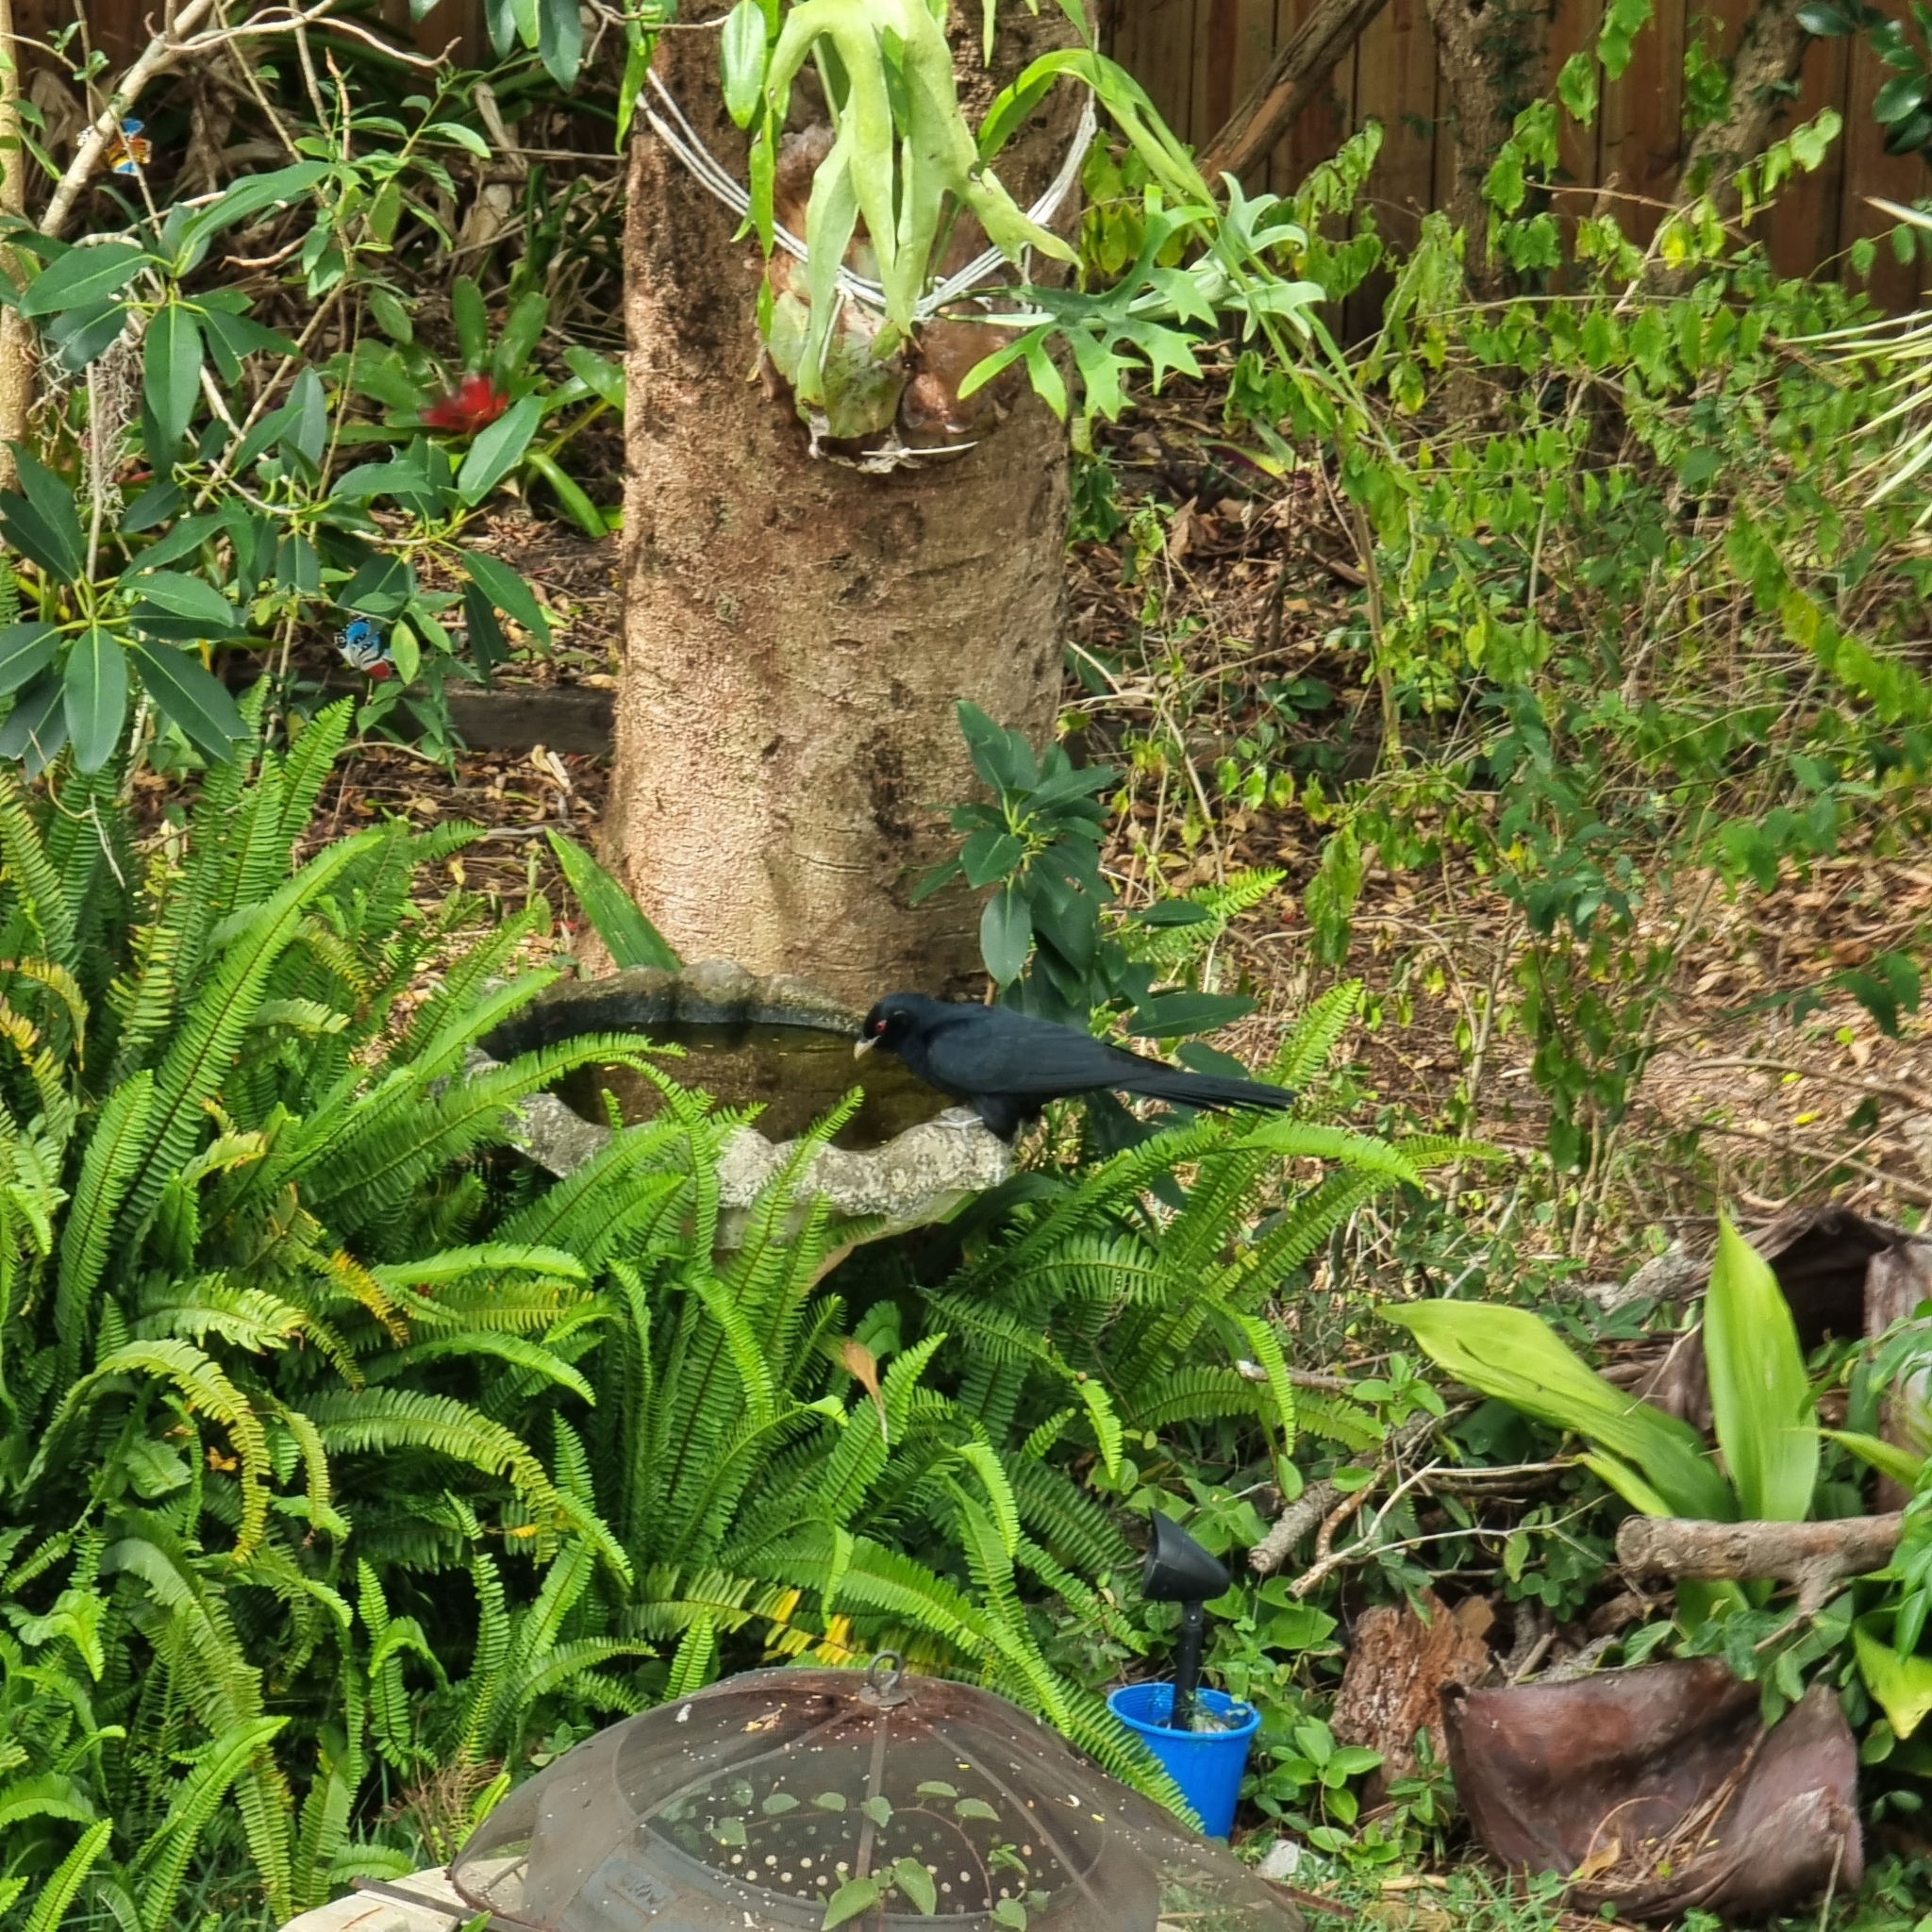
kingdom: Animalia
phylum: Chordata
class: Aves
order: Cuculiformes
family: Cuculidae
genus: Eudynamys
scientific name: Eudynamys orientalis
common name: Pacific koel
